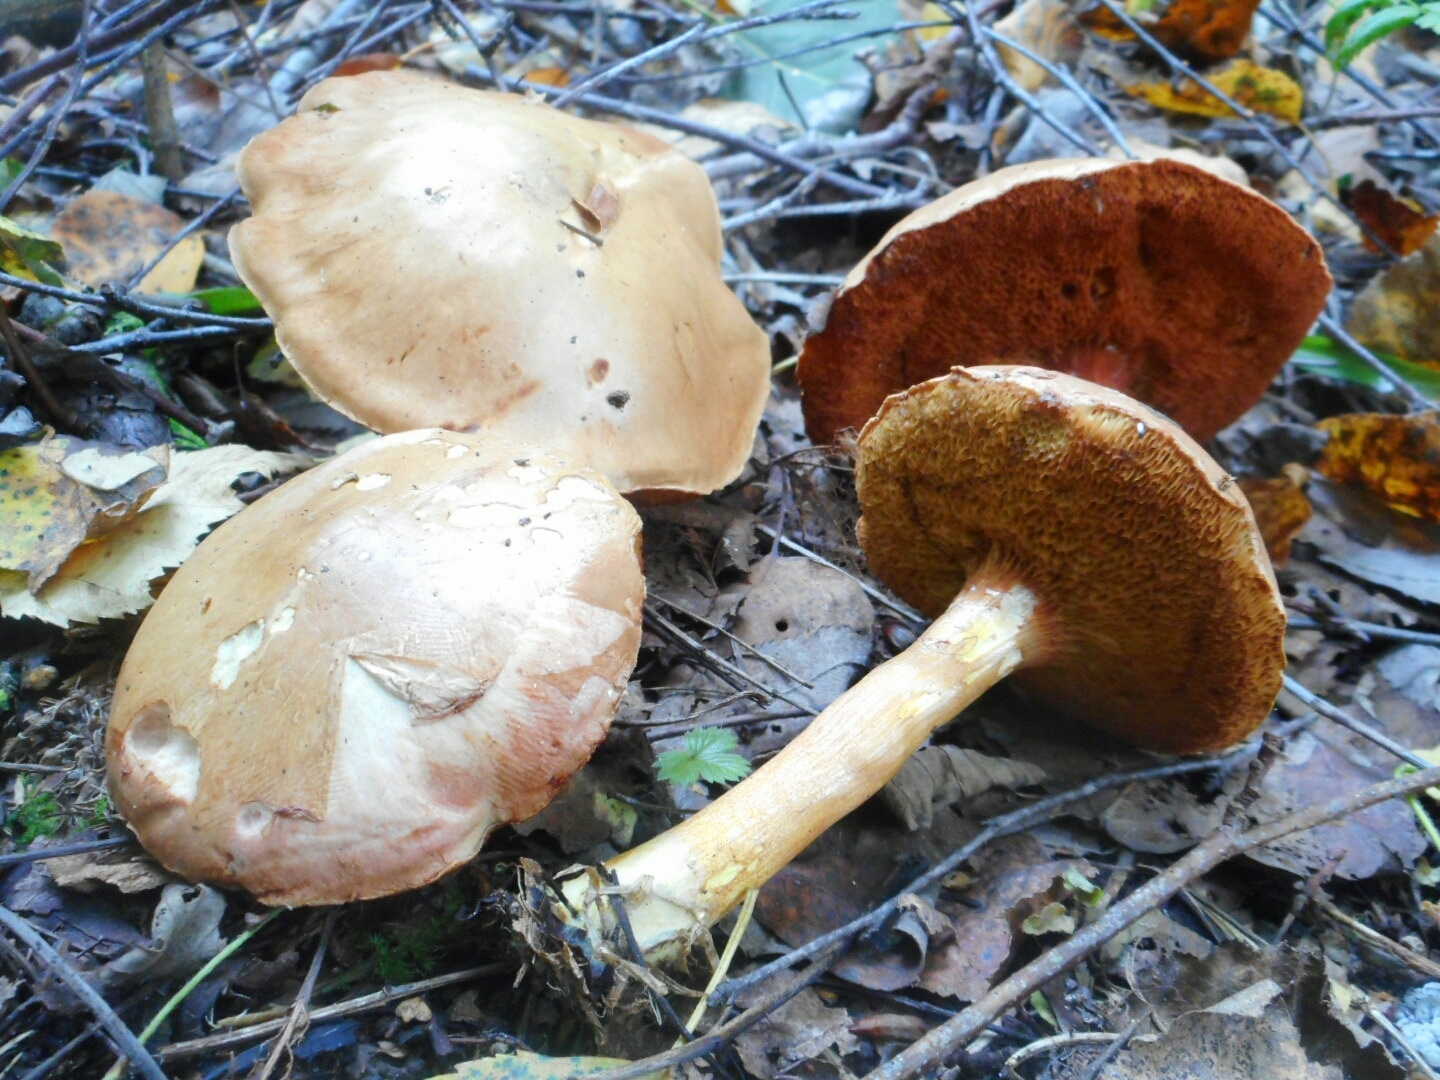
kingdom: Fungi
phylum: Basidiomycota
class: Agaricomycetes
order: Boletales
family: Boletaceae
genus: Chalciporus
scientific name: Chalciporus piperatus
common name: Peppery bolete
